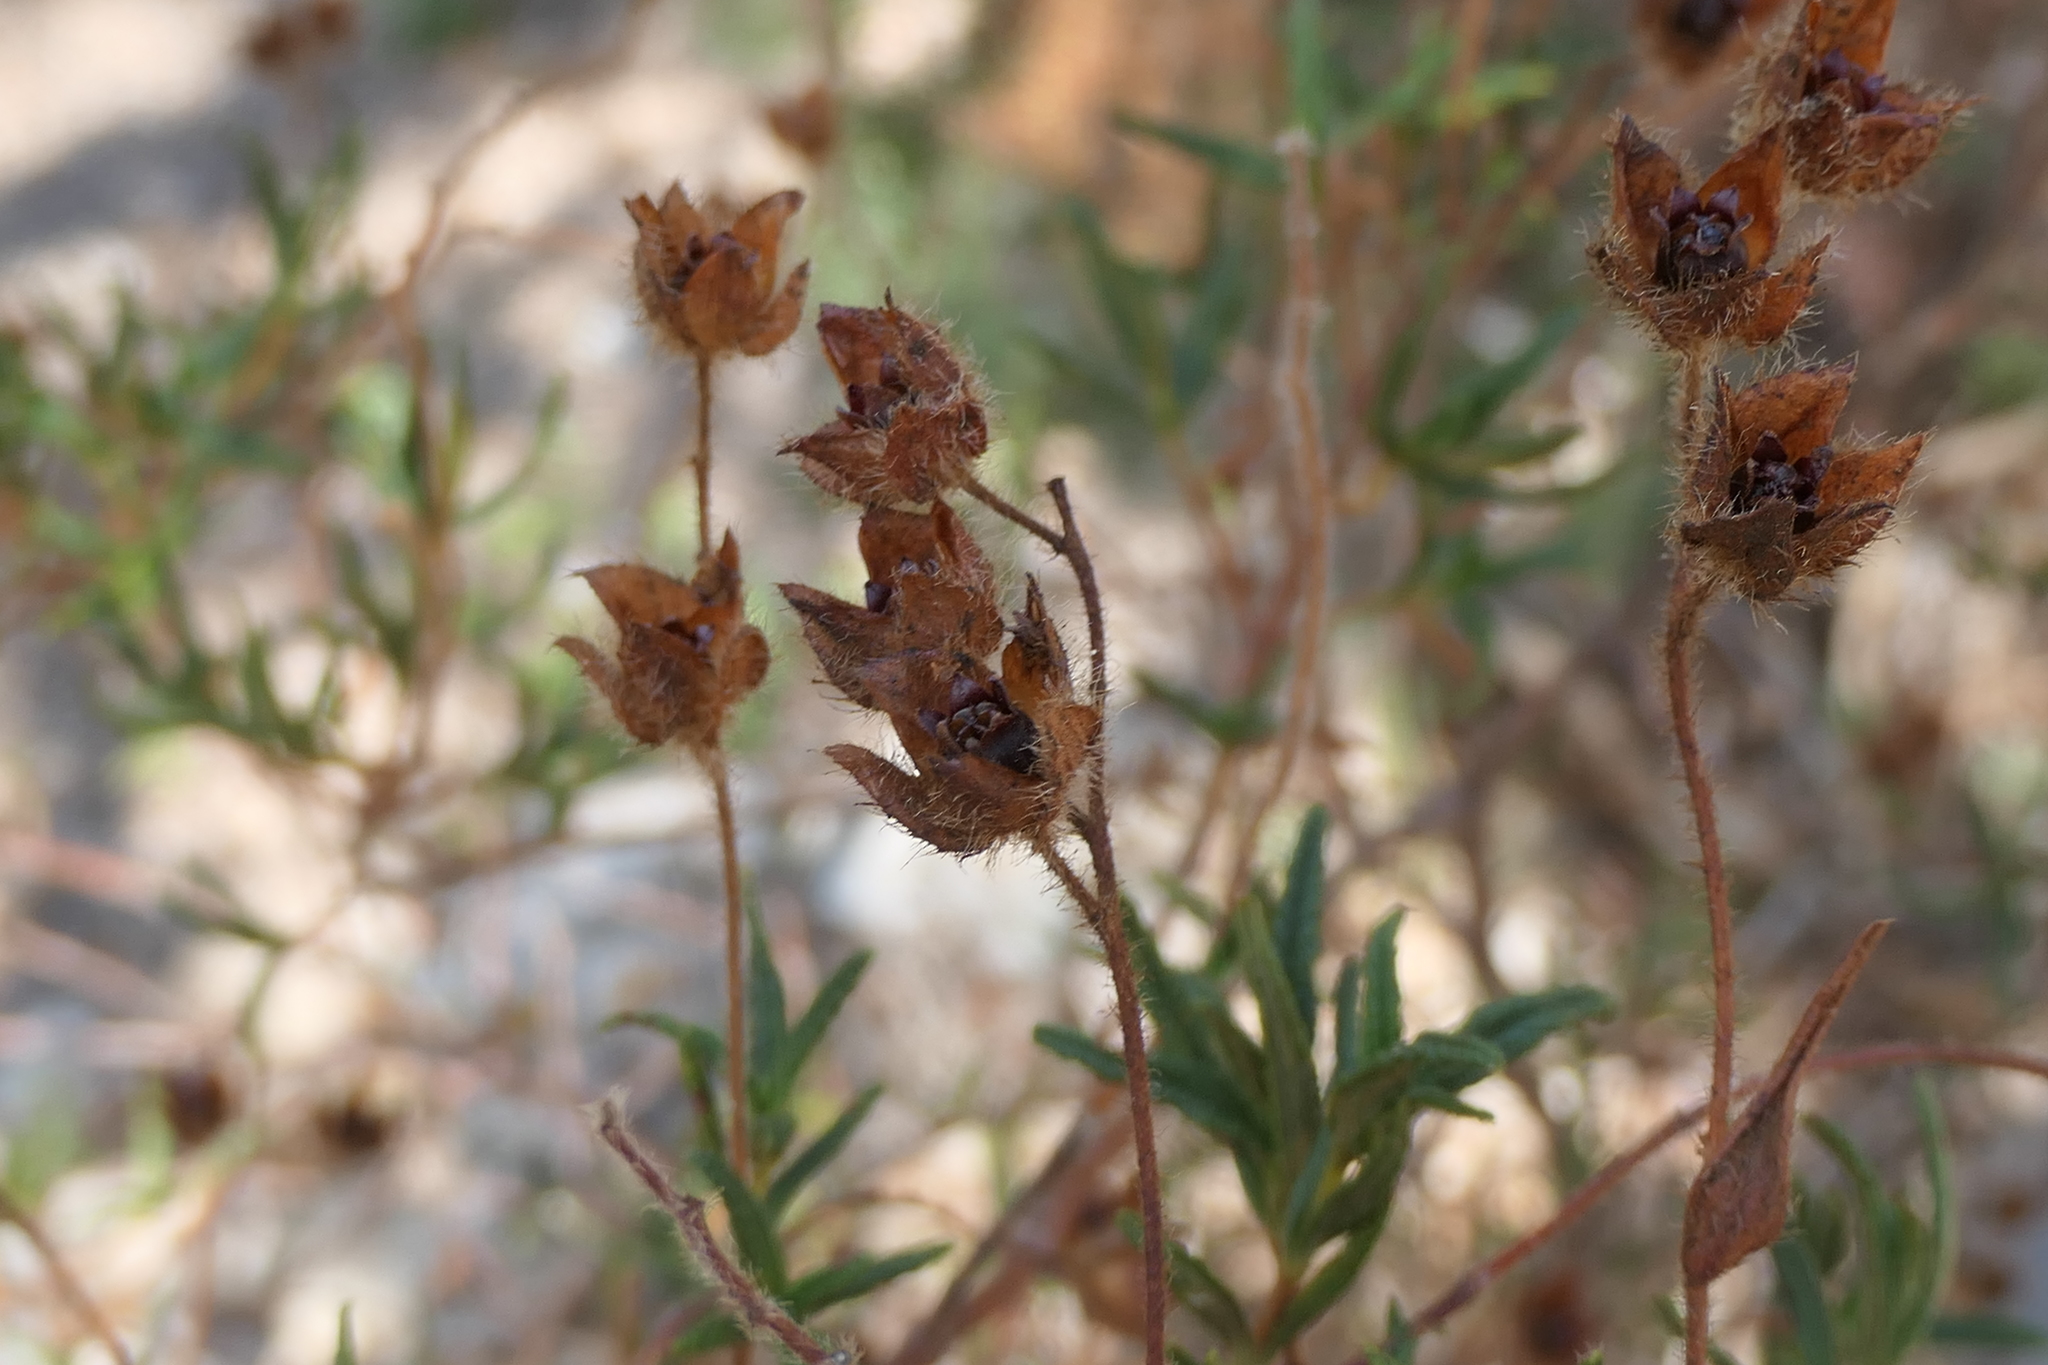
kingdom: Plantae
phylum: Tracheophyta
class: Magnoliopsida
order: Malvales
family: Cistaceae
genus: Cistus
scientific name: Cistus monspeliensis
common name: Montpelier cistus
